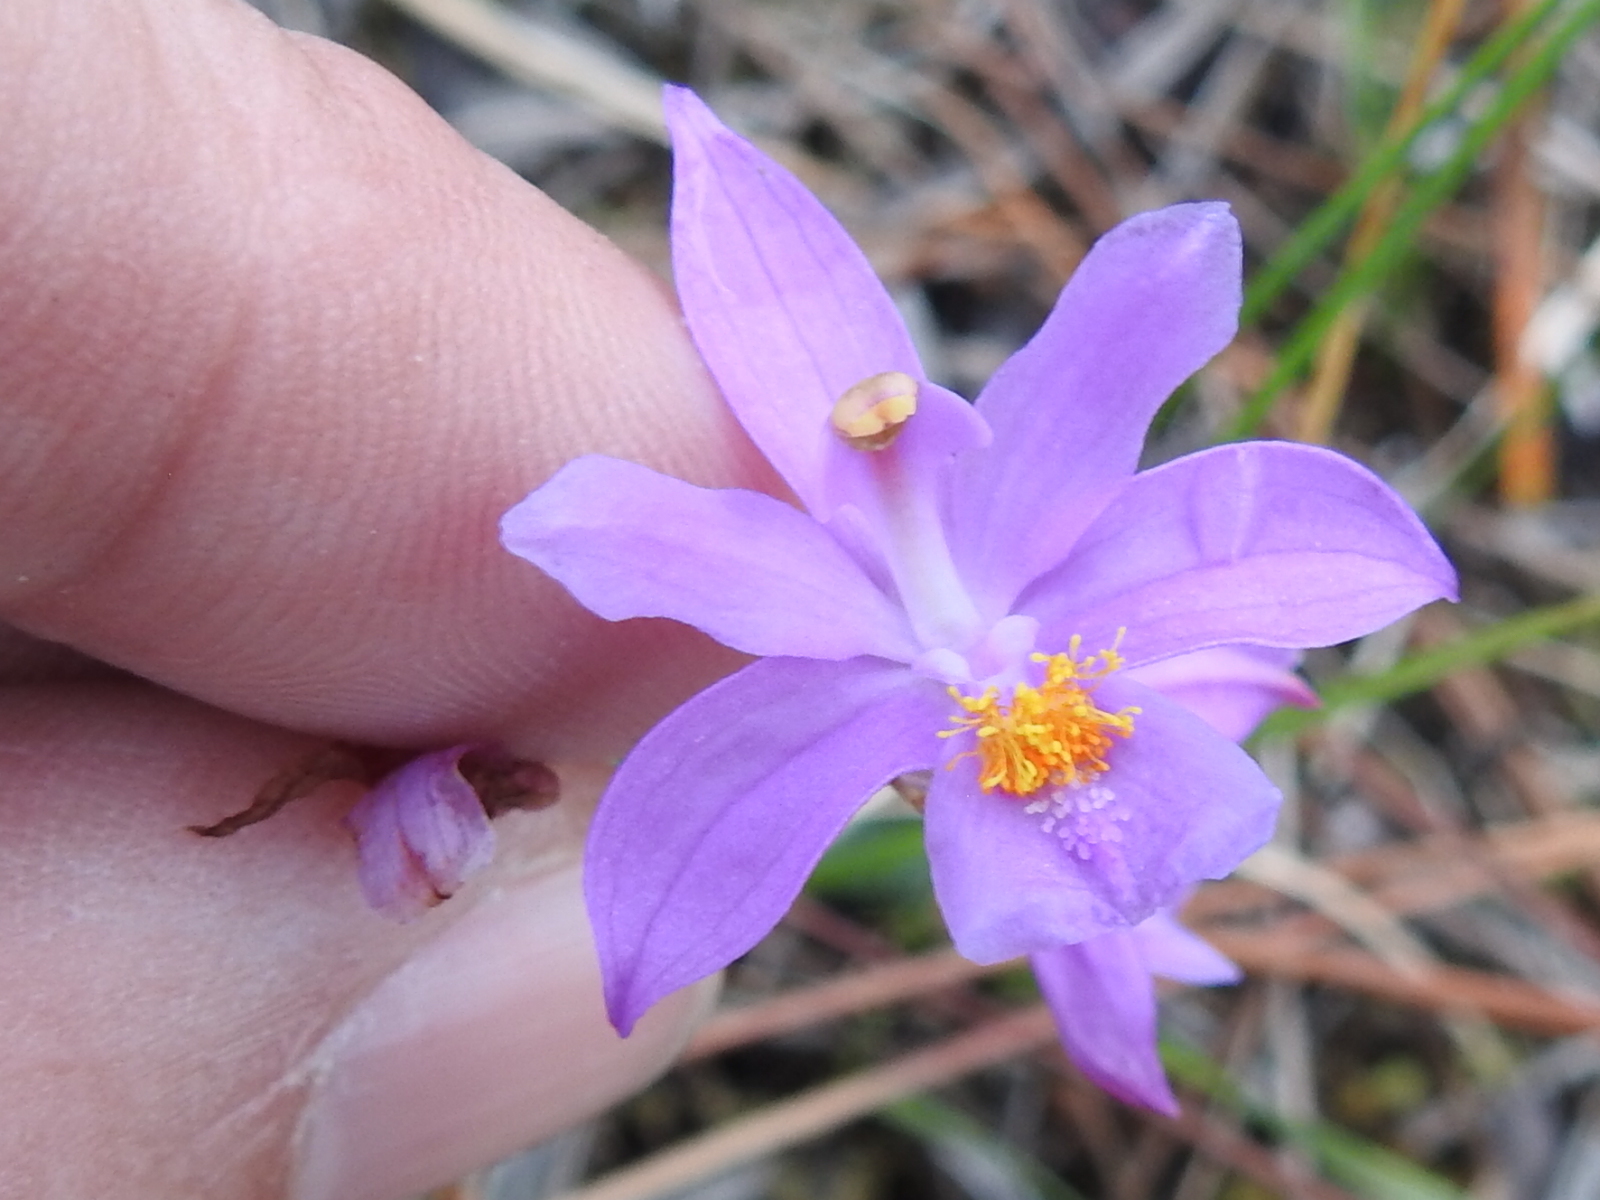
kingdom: Plantae
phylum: Tracheophyta
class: Liliopsida
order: Asparagales
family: Orchidaceae
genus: Calopogon
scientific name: Calopogon barbatus
